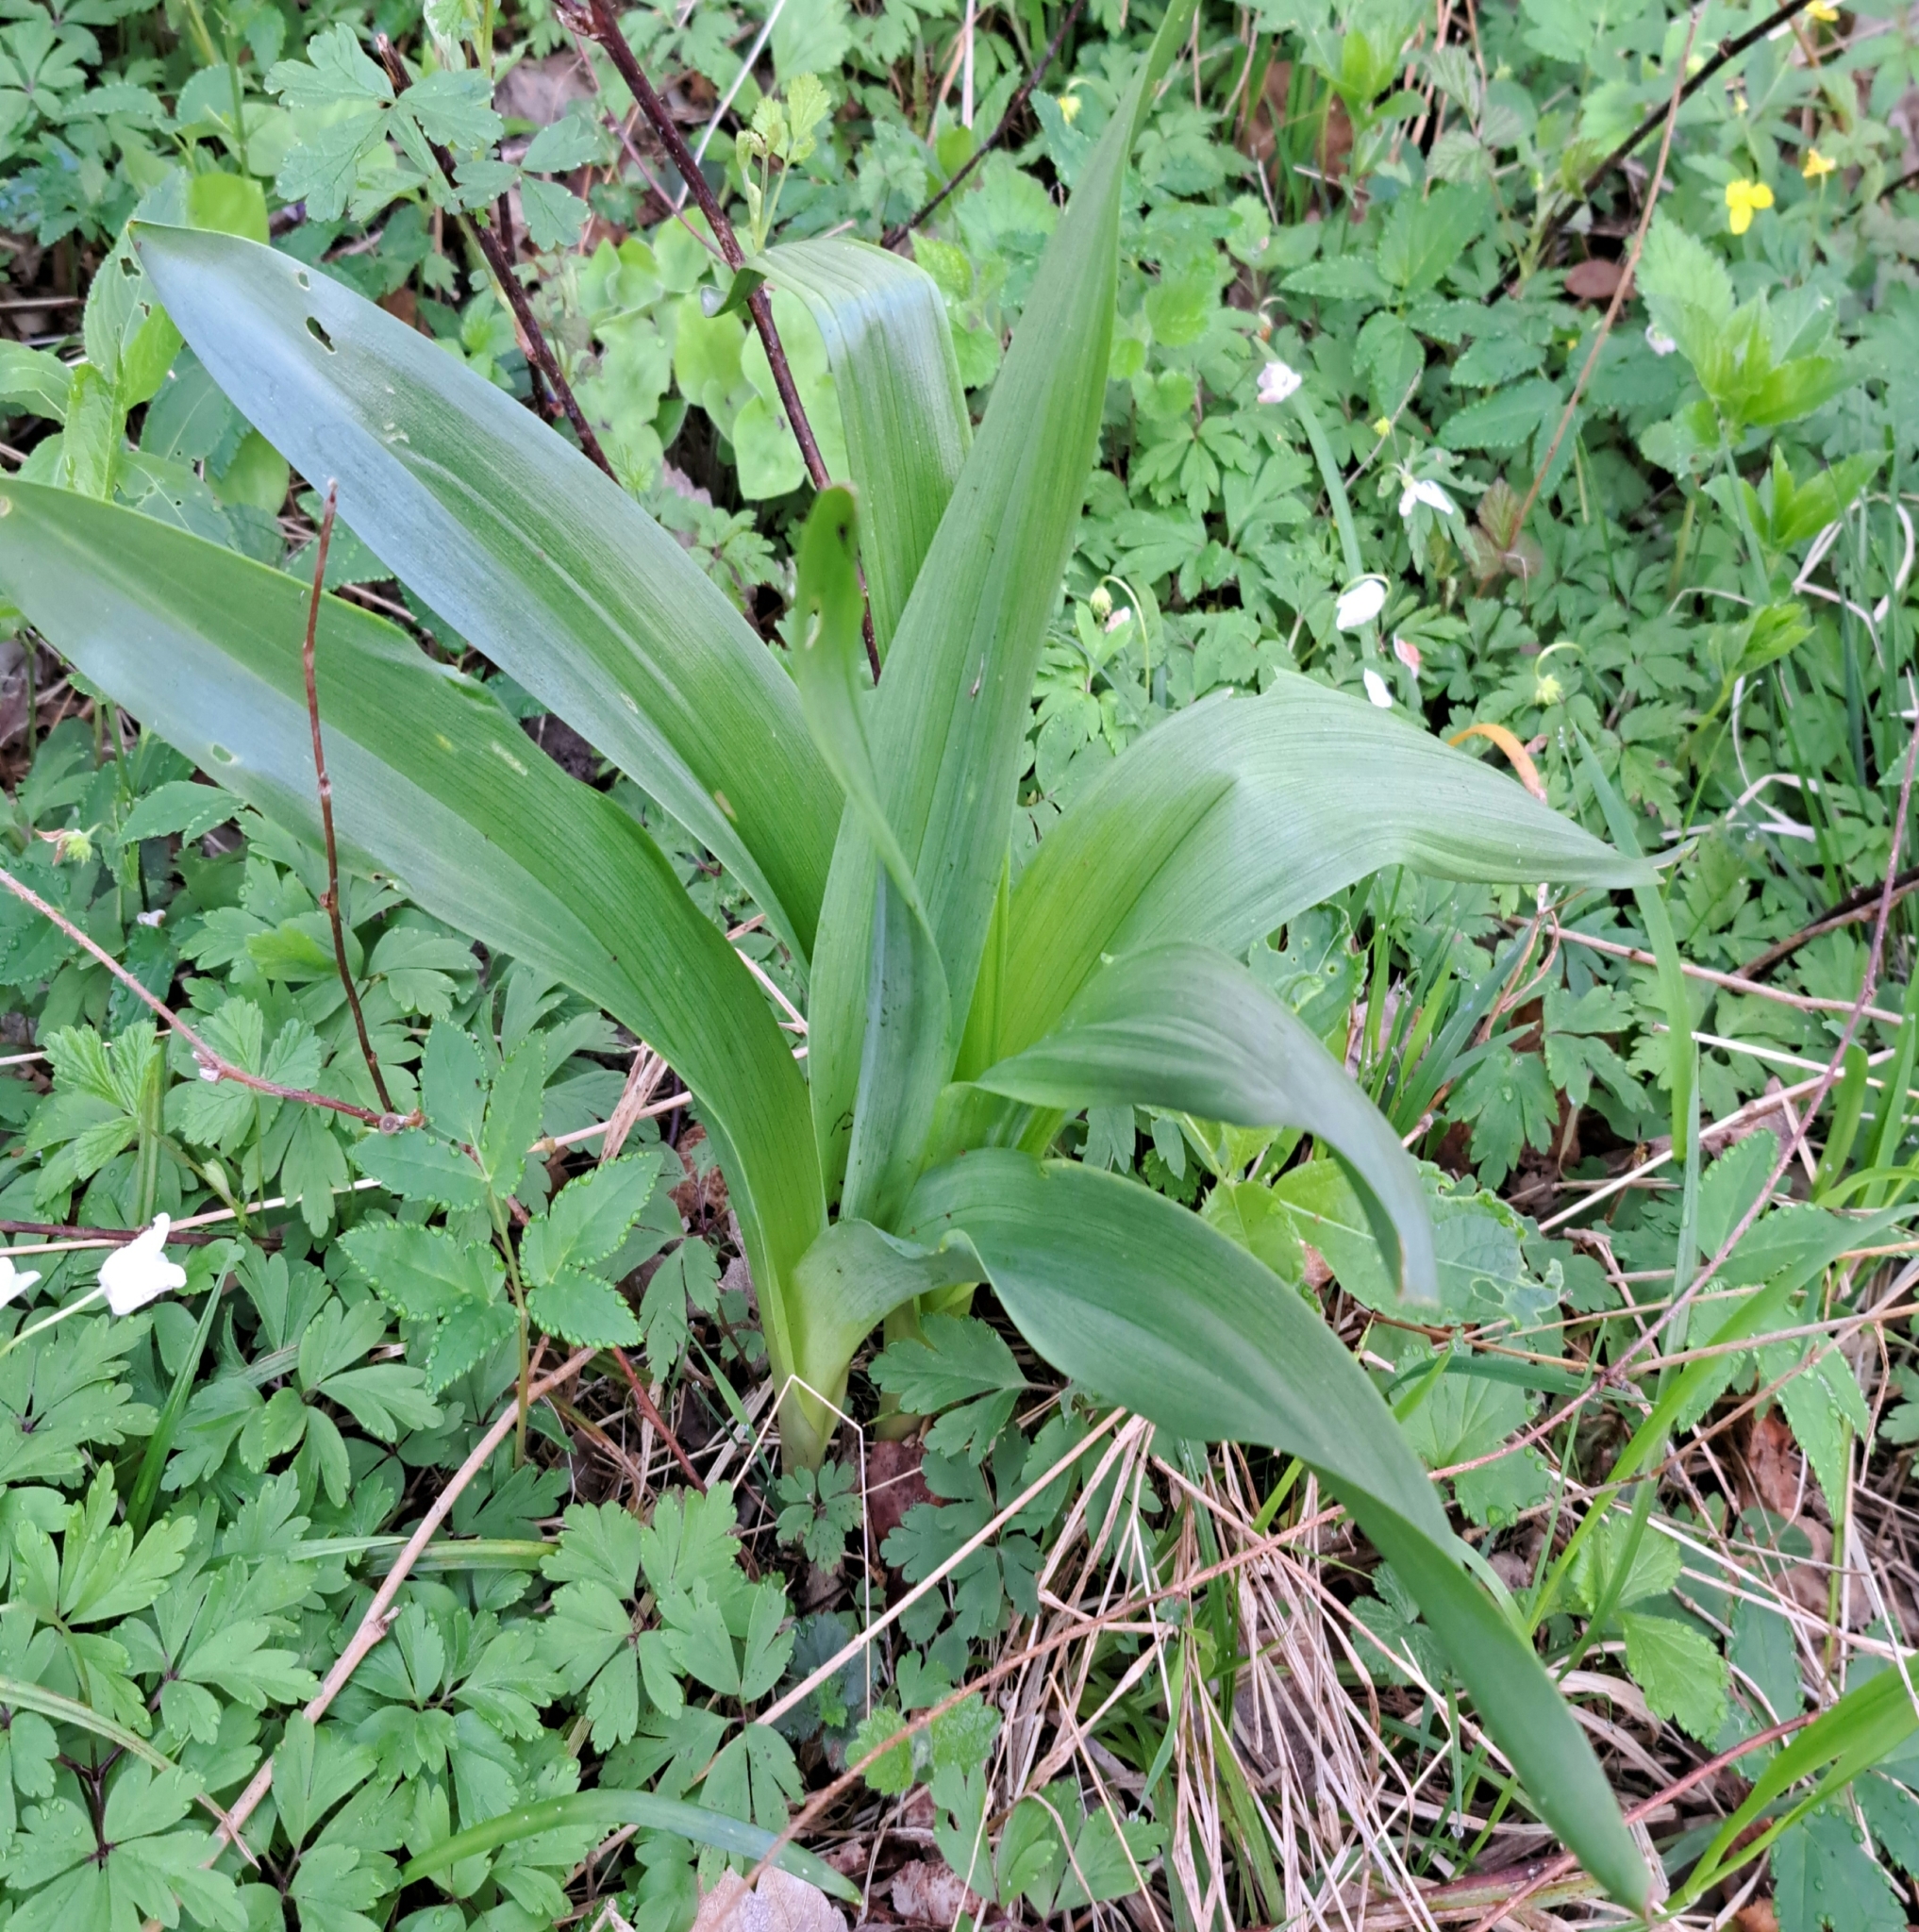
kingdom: Plantae
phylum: Tracheophyta
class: Liliopsida
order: Liliales
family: Colchicaceae
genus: Colchicum
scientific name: Colchicum autumnale
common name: Autumn crocus
